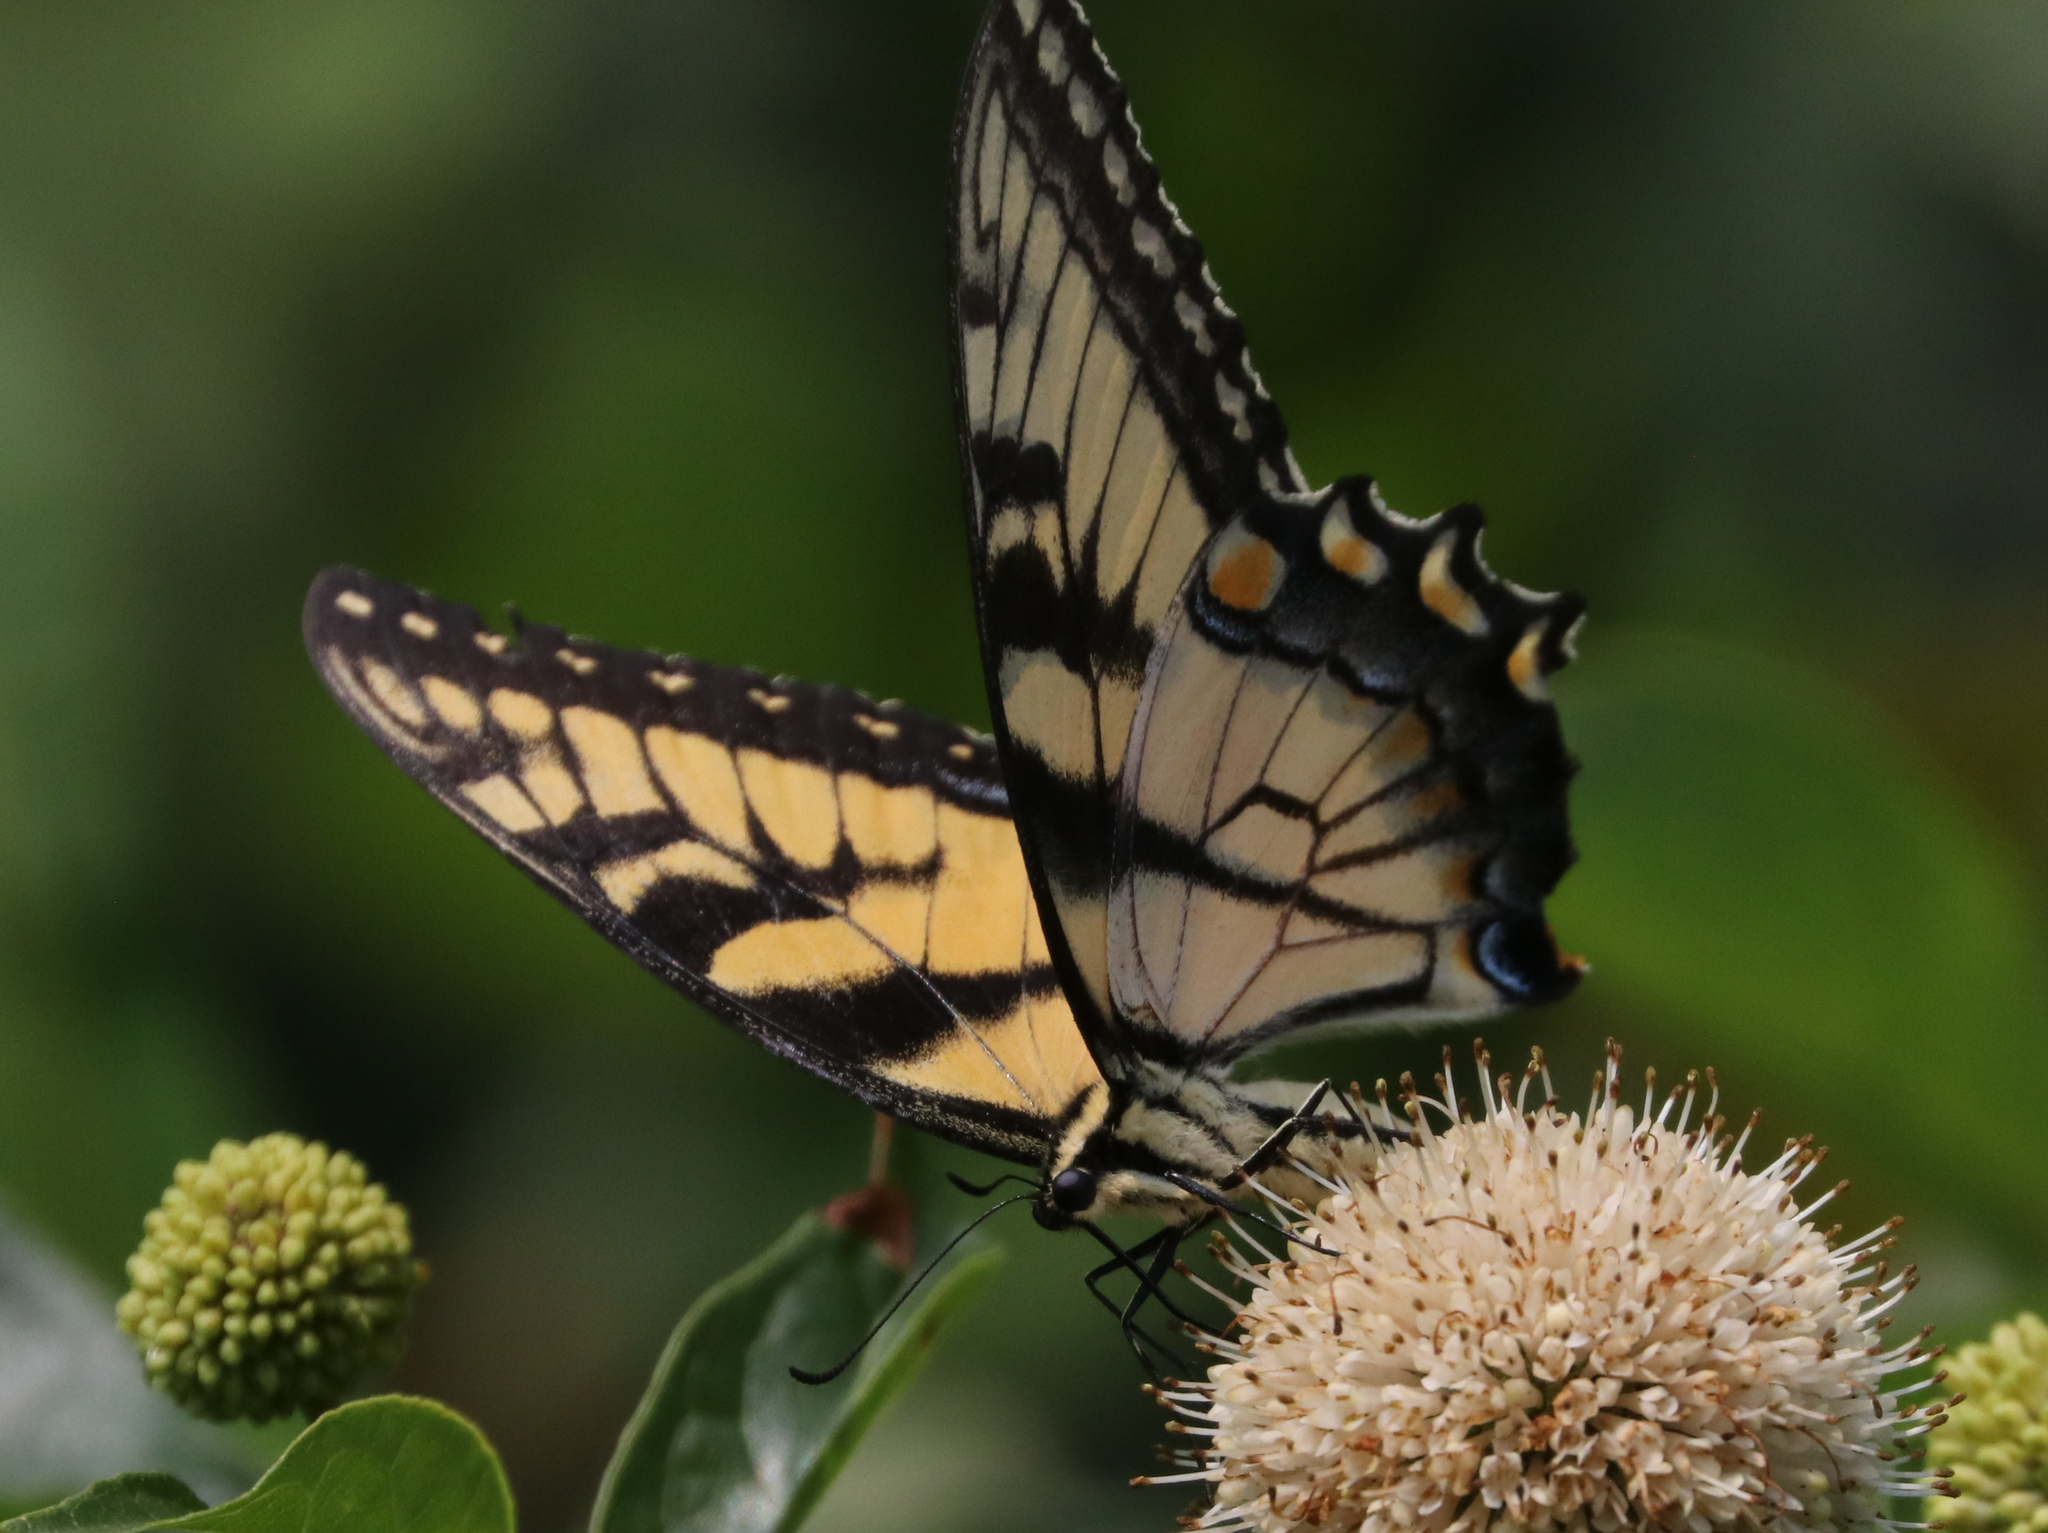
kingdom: Animalia
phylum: Arthropoda
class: Insecta
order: Lepidoptera
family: Papilionidae
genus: Papilio
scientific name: Papilio glaucus
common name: Tiger swallowtail
